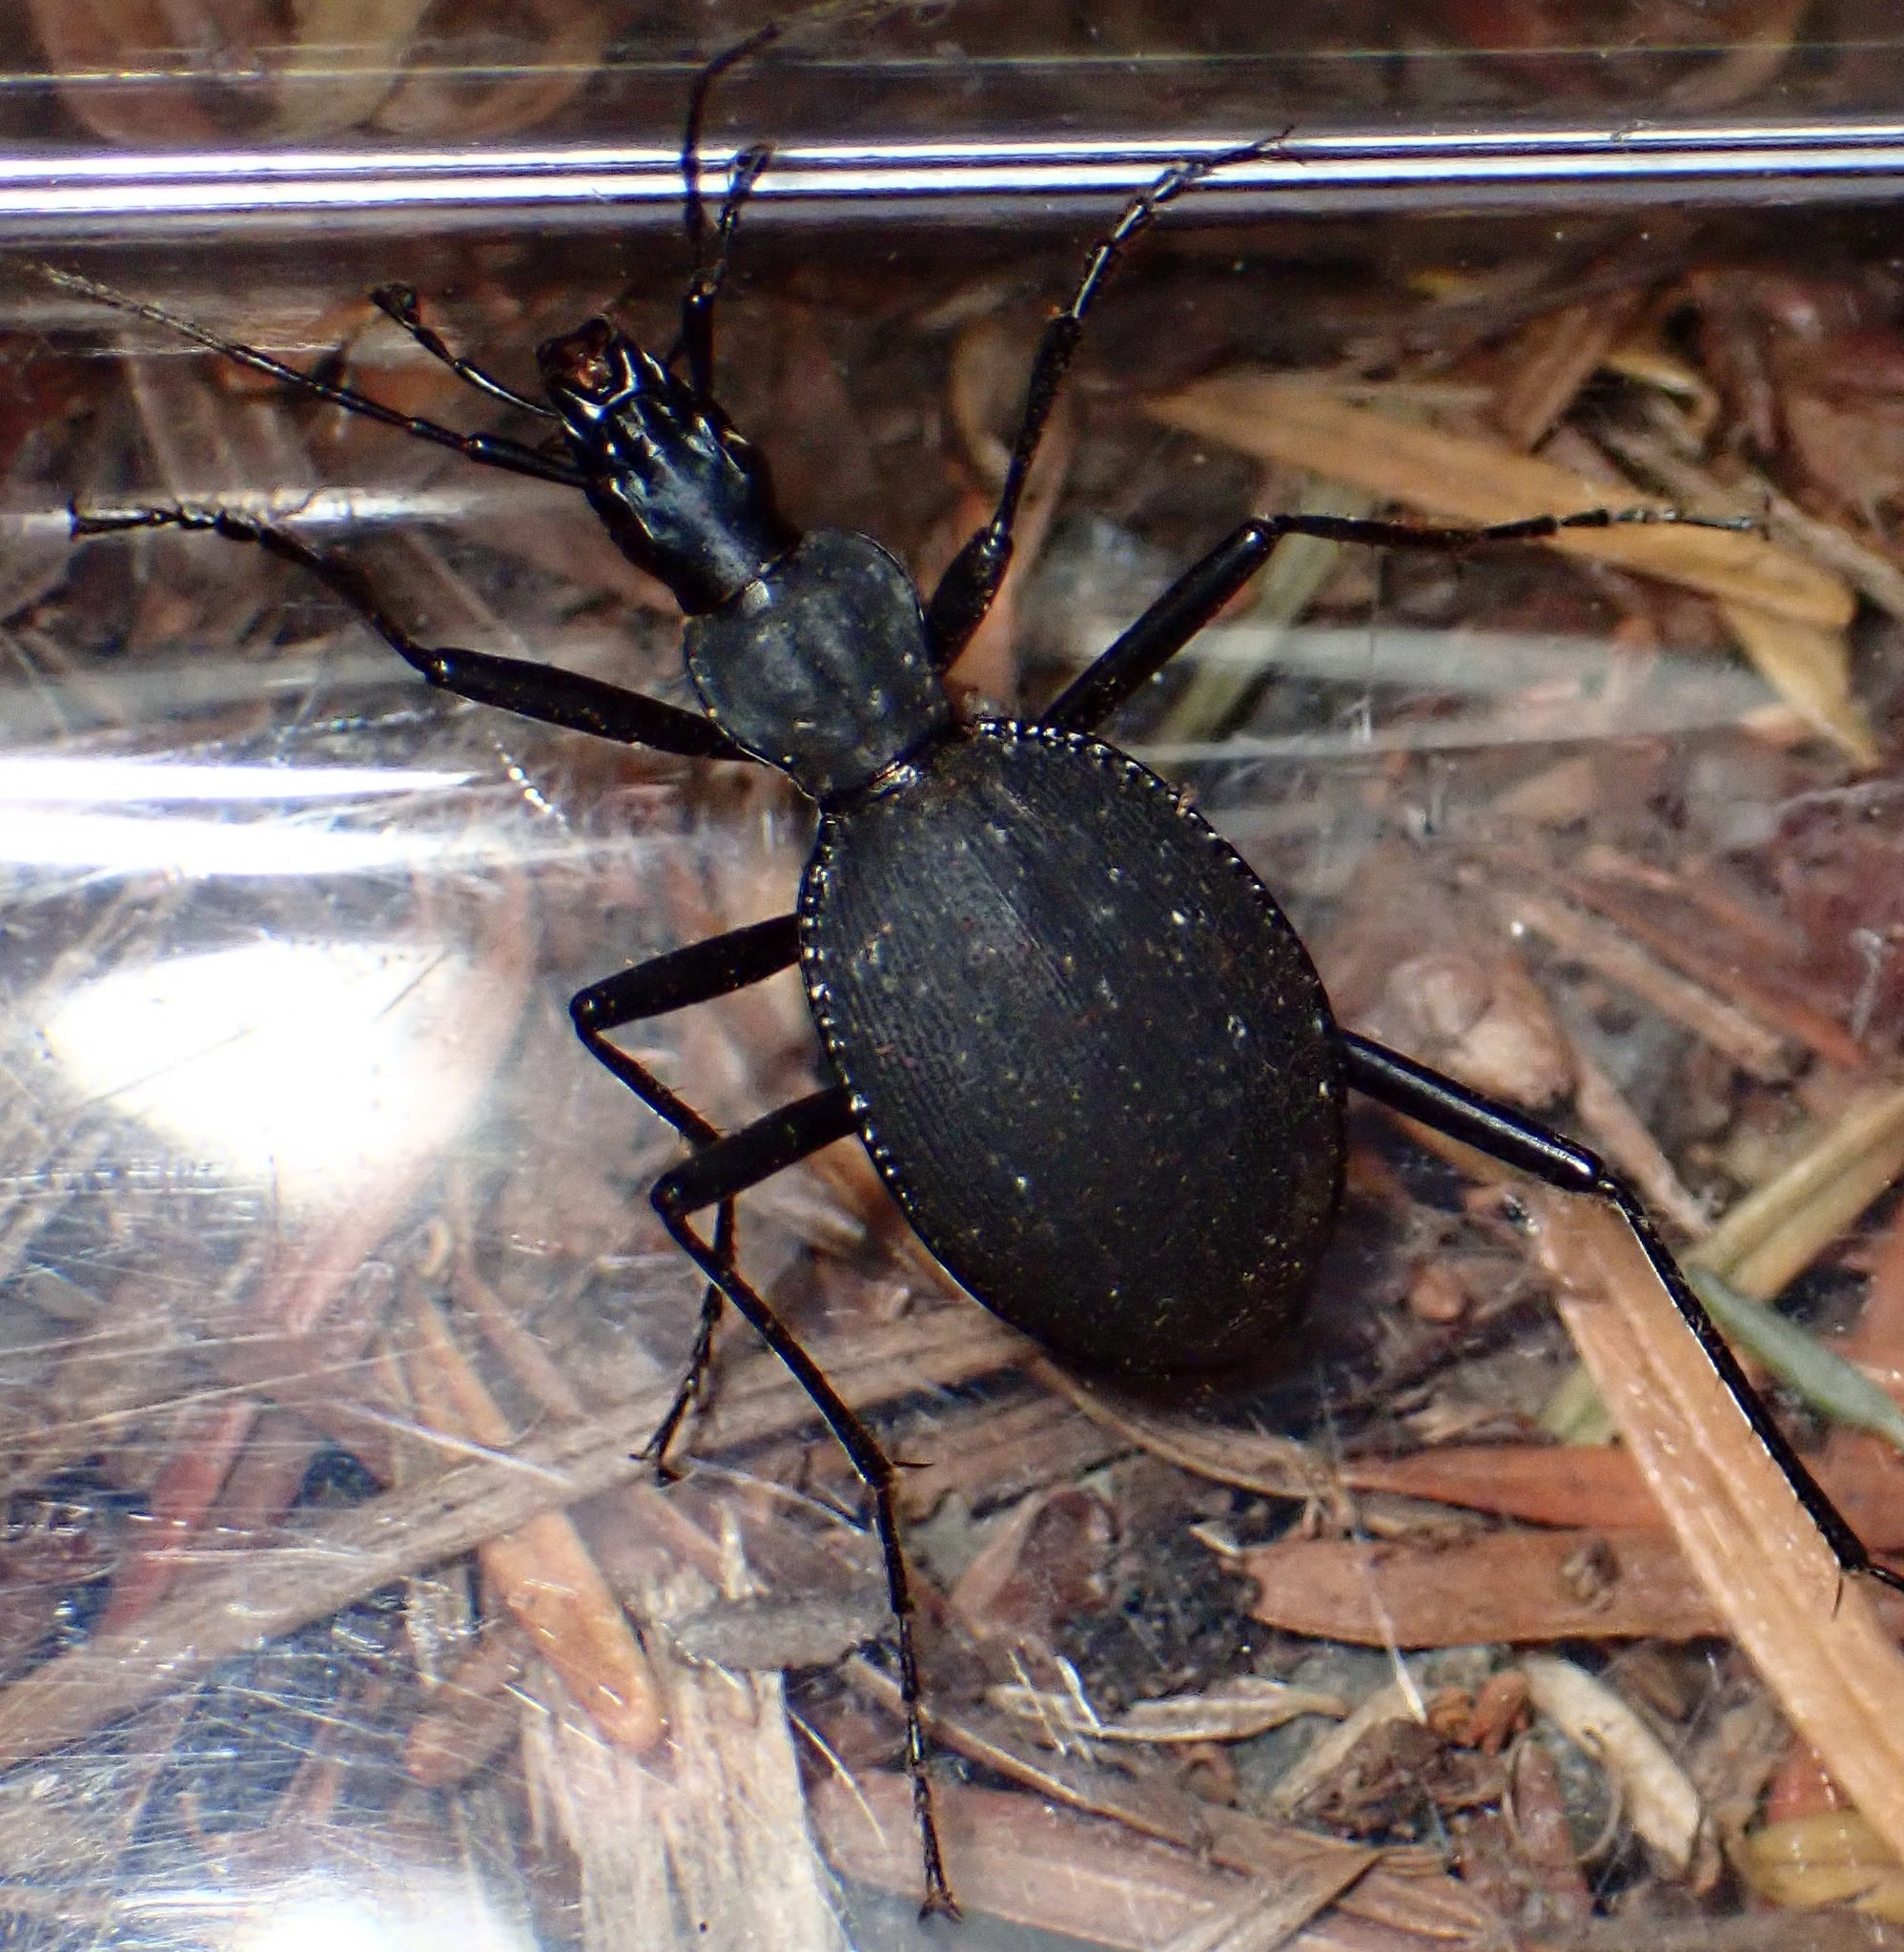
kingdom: Animalia
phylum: Arthropoda
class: Insecta
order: Coleoptera
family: Carabidae
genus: Scaphinotus
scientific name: Scaphinotus angusticollis
